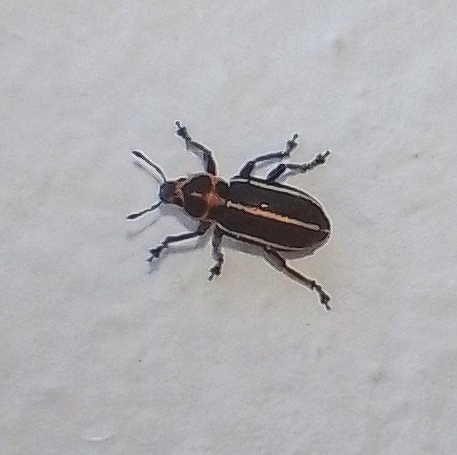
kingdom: Animalia
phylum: Arthropoda
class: Insecta
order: Coleoptera
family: Curculionidae
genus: Eudiagogus
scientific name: Eudiagogus episcopalis
